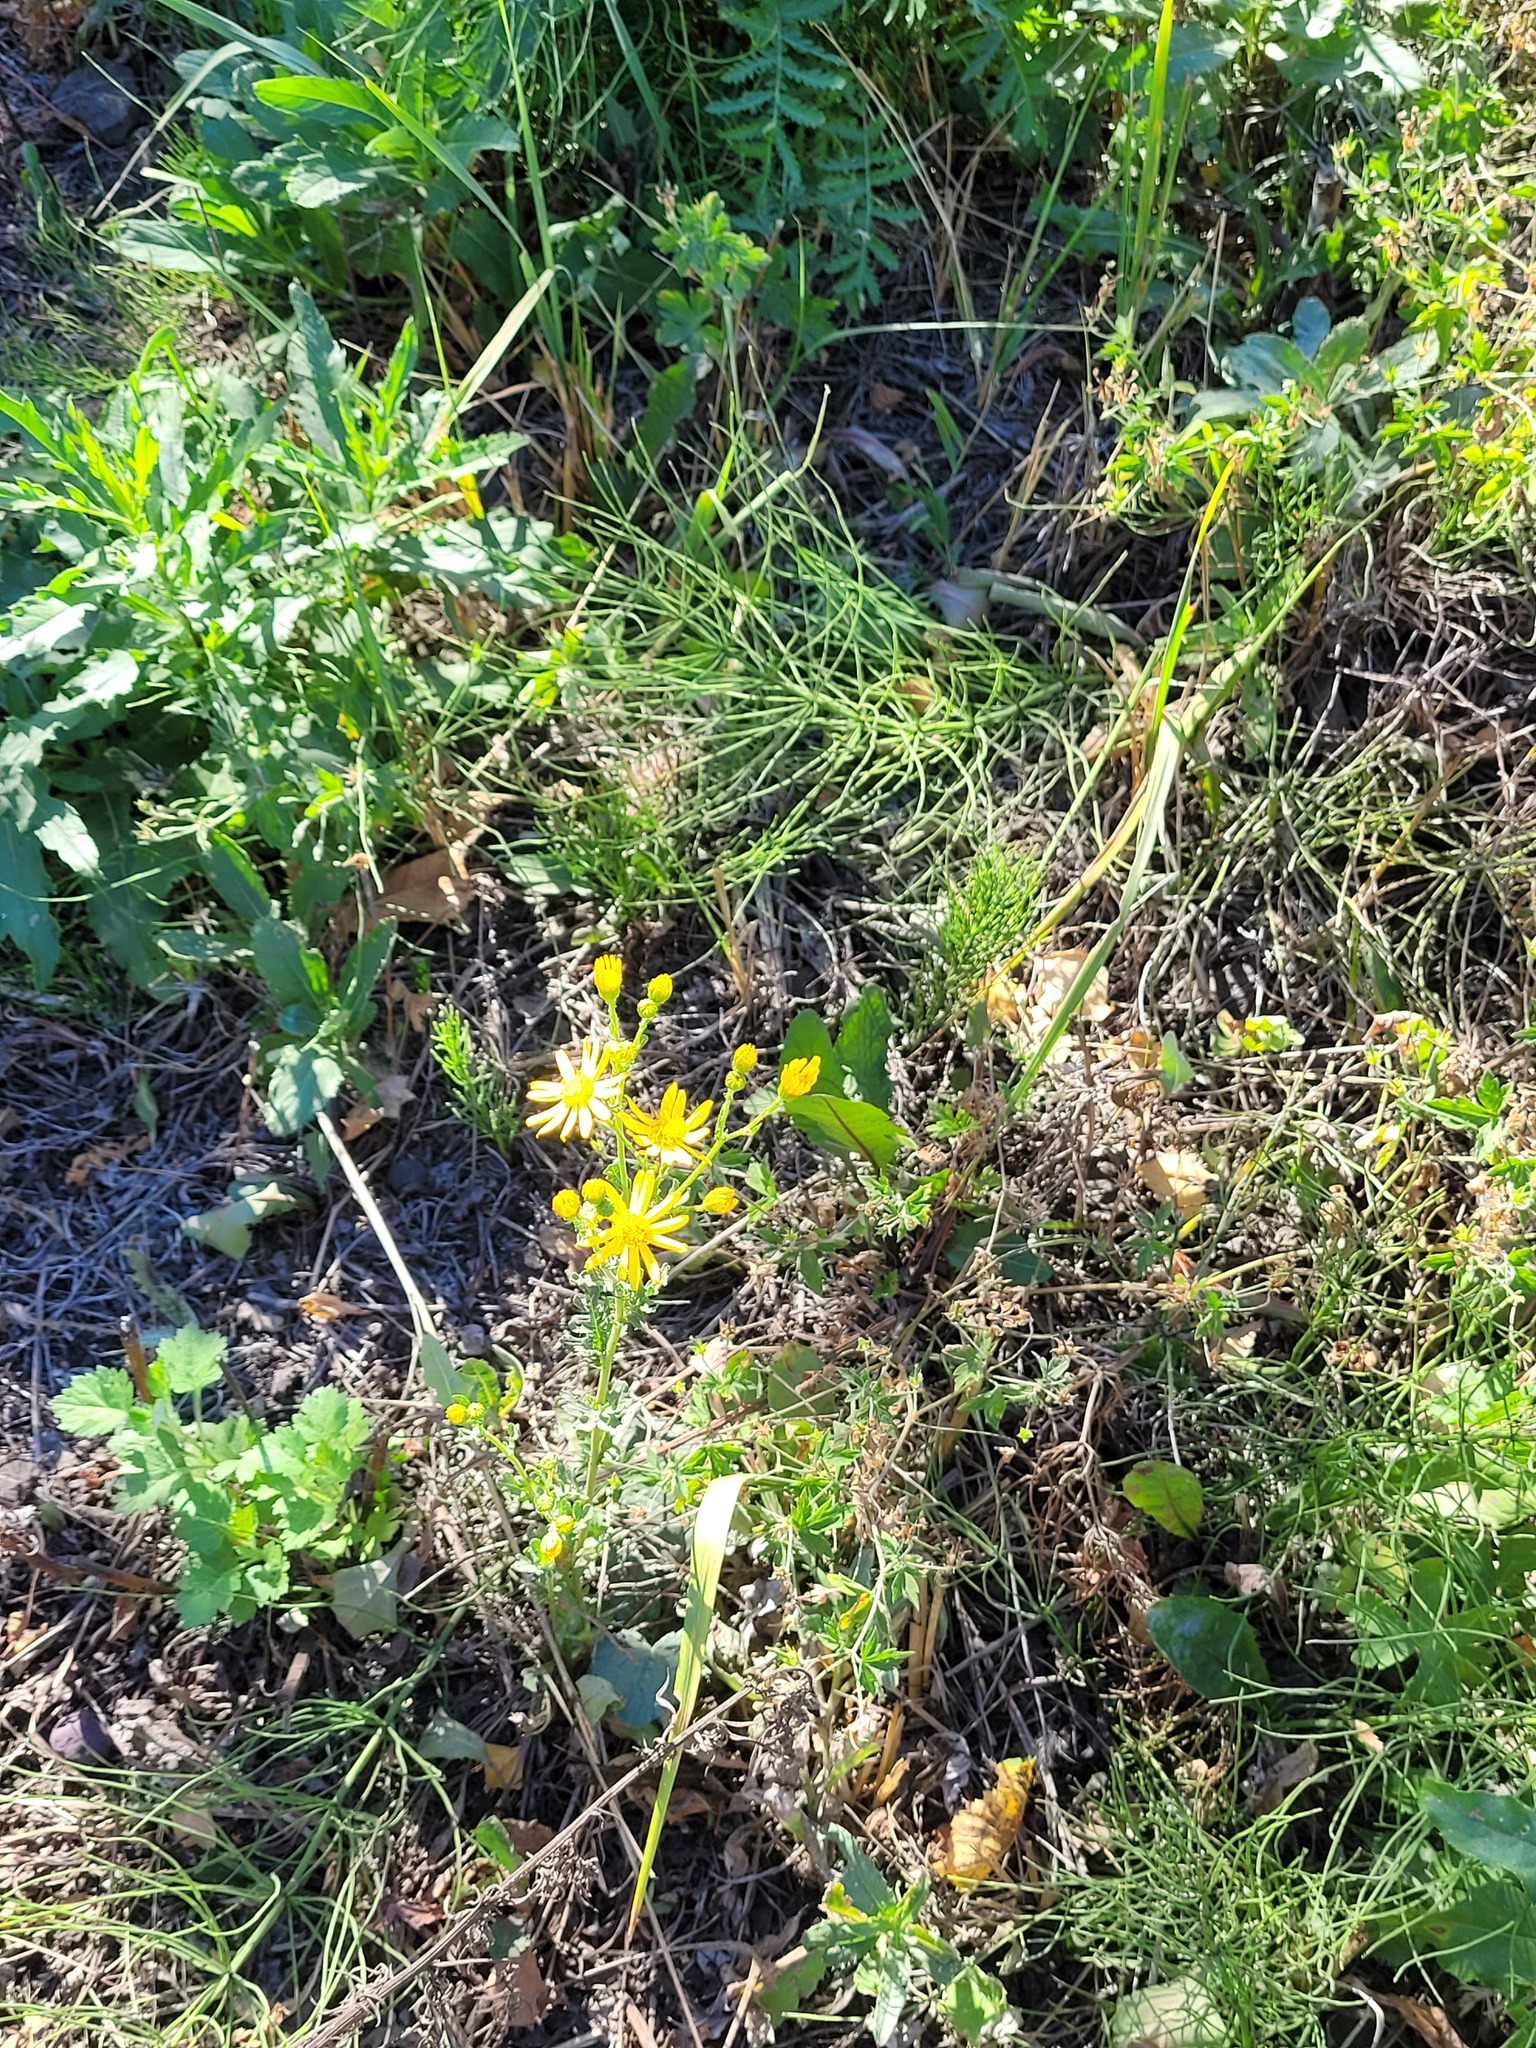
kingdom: Plantae
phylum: Tracheophyta
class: Magnoliopsida
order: Asterales
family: Asteraceae
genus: Jacobaea
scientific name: Jacobaea vulgaris
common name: Stinking willie
